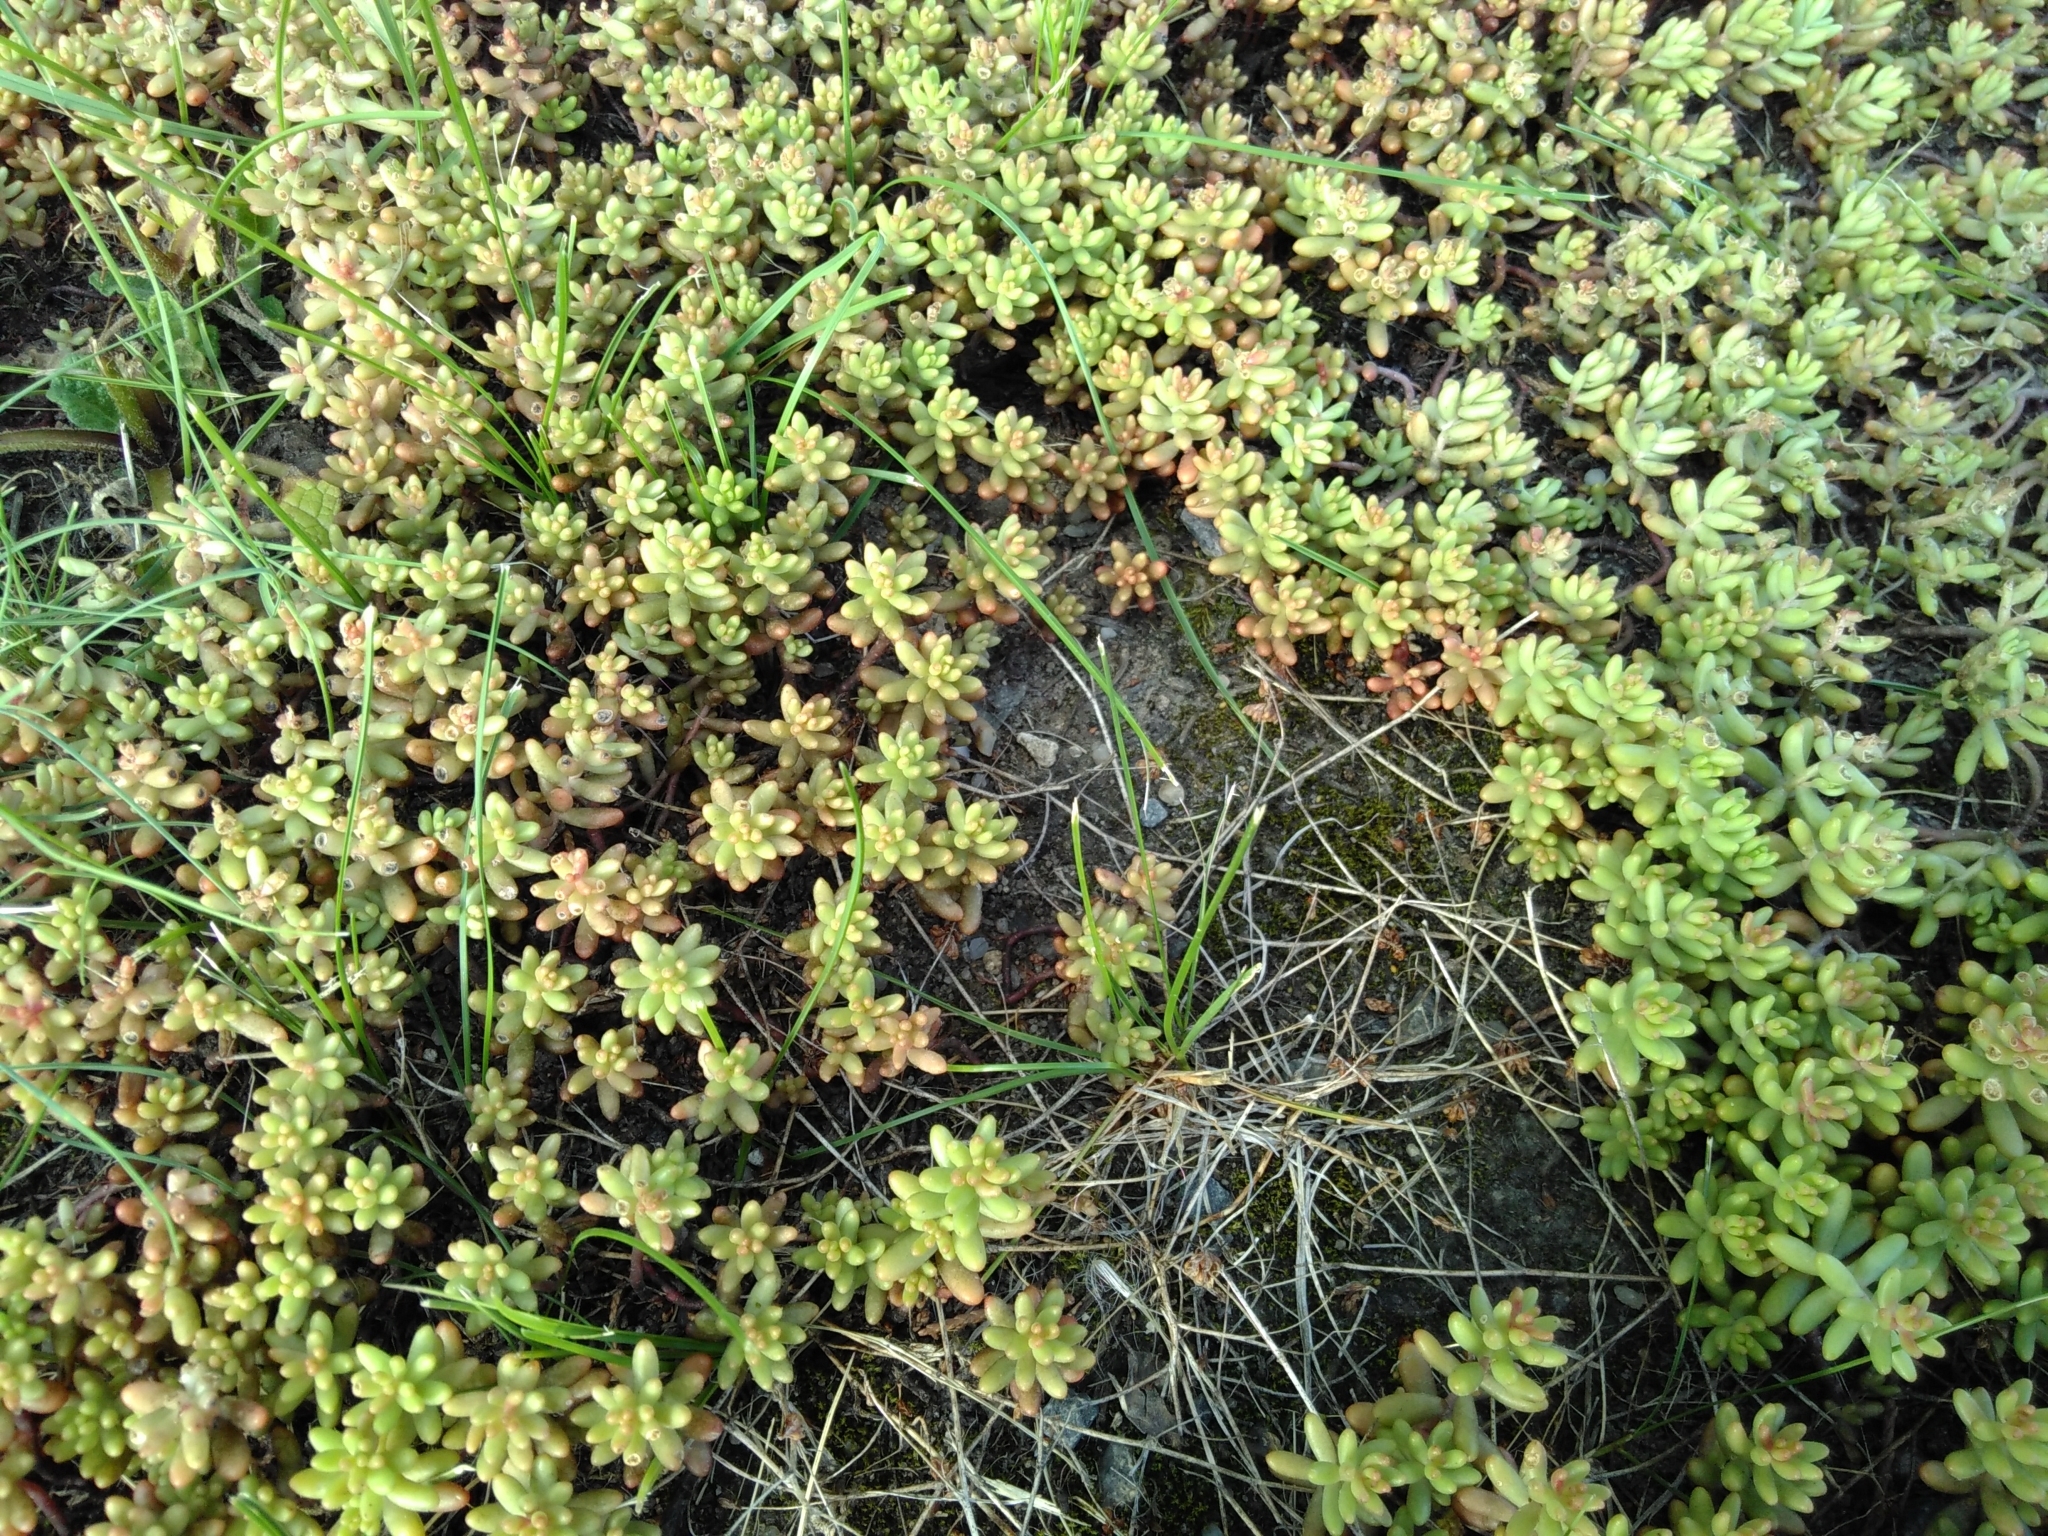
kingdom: Plantae
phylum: Tracheophyta
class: Magnoliopsida
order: Saxifragales
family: Crassulaceae
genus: Sedum
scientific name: Sedum album
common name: White stonecrop
